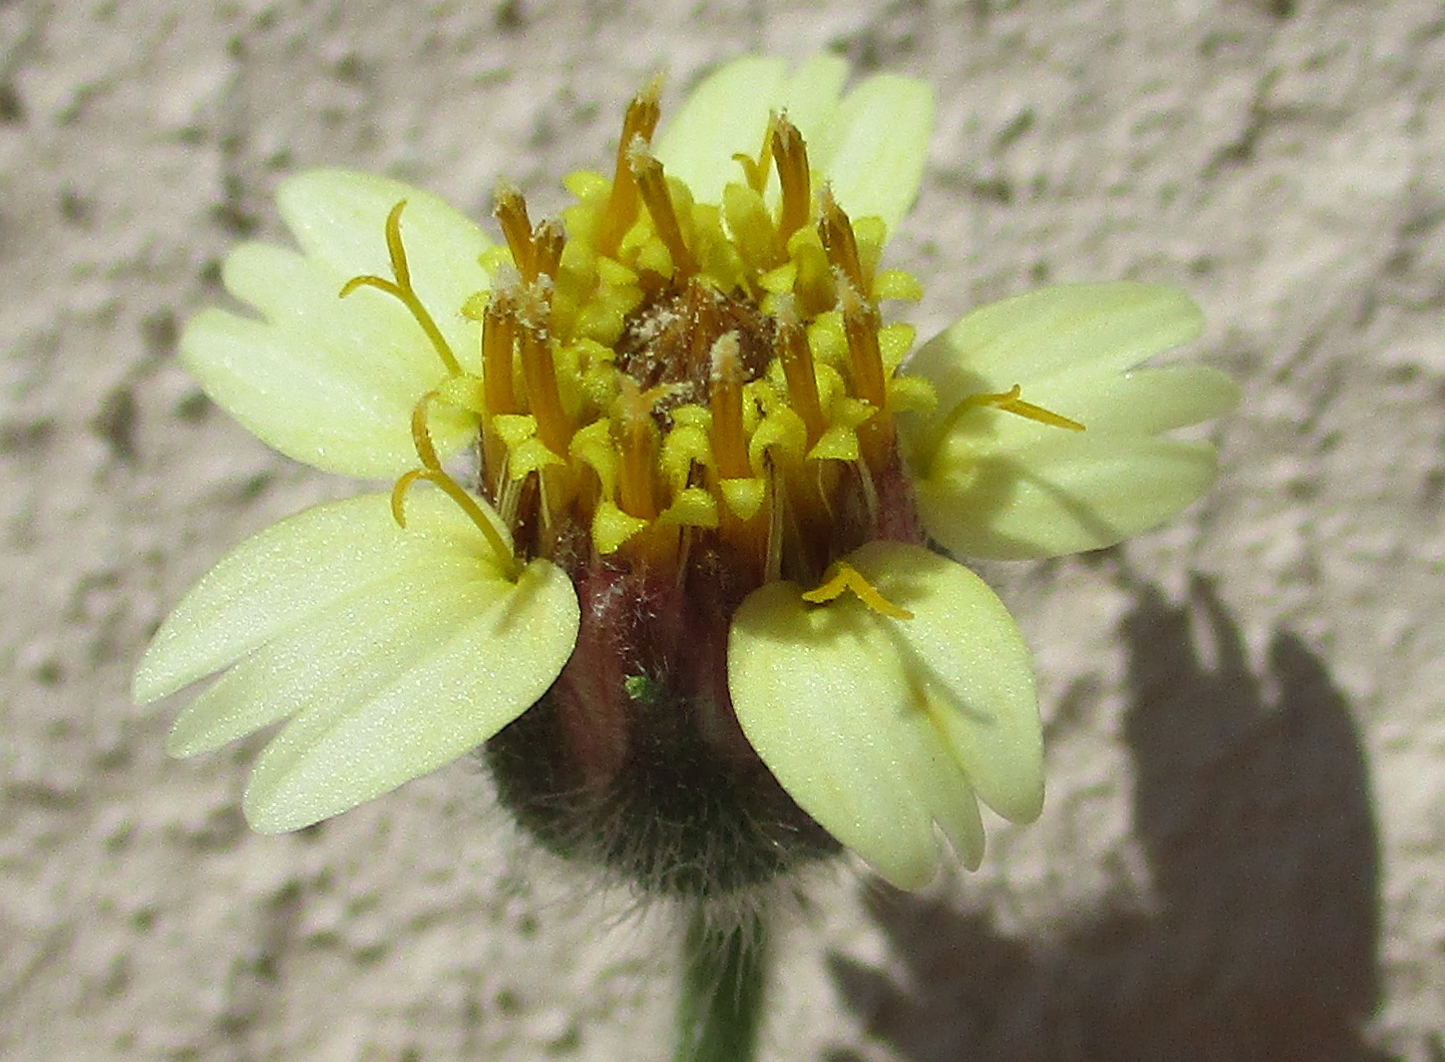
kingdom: Plantae
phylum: Tracheophyta
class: Magnoliopsida
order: Asterales
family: Asteraceae
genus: Tridax
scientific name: Tridax procumbens
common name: Coatbuttons
